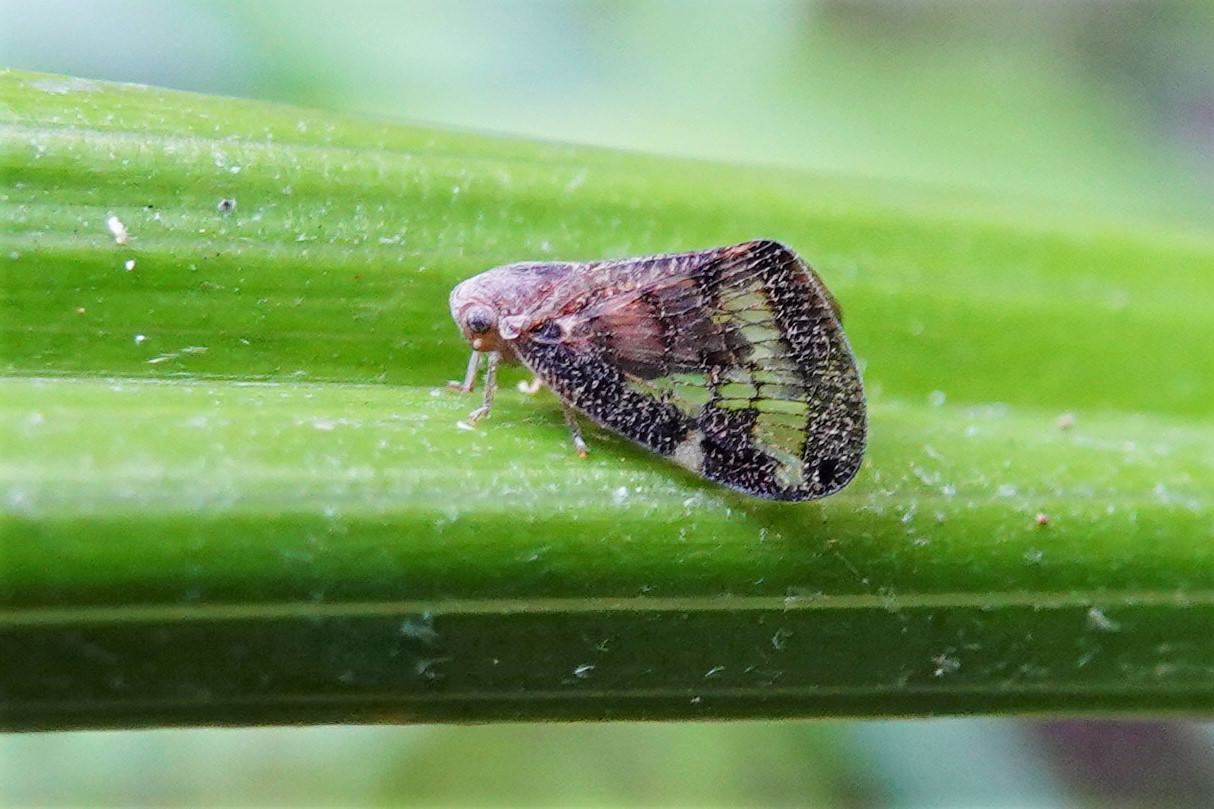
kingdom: Animalia
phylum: Arthropoda
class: Insecta
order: Hemiptera
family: Ricaniidae
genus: Scolypopa
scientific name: Scolypopa australis
